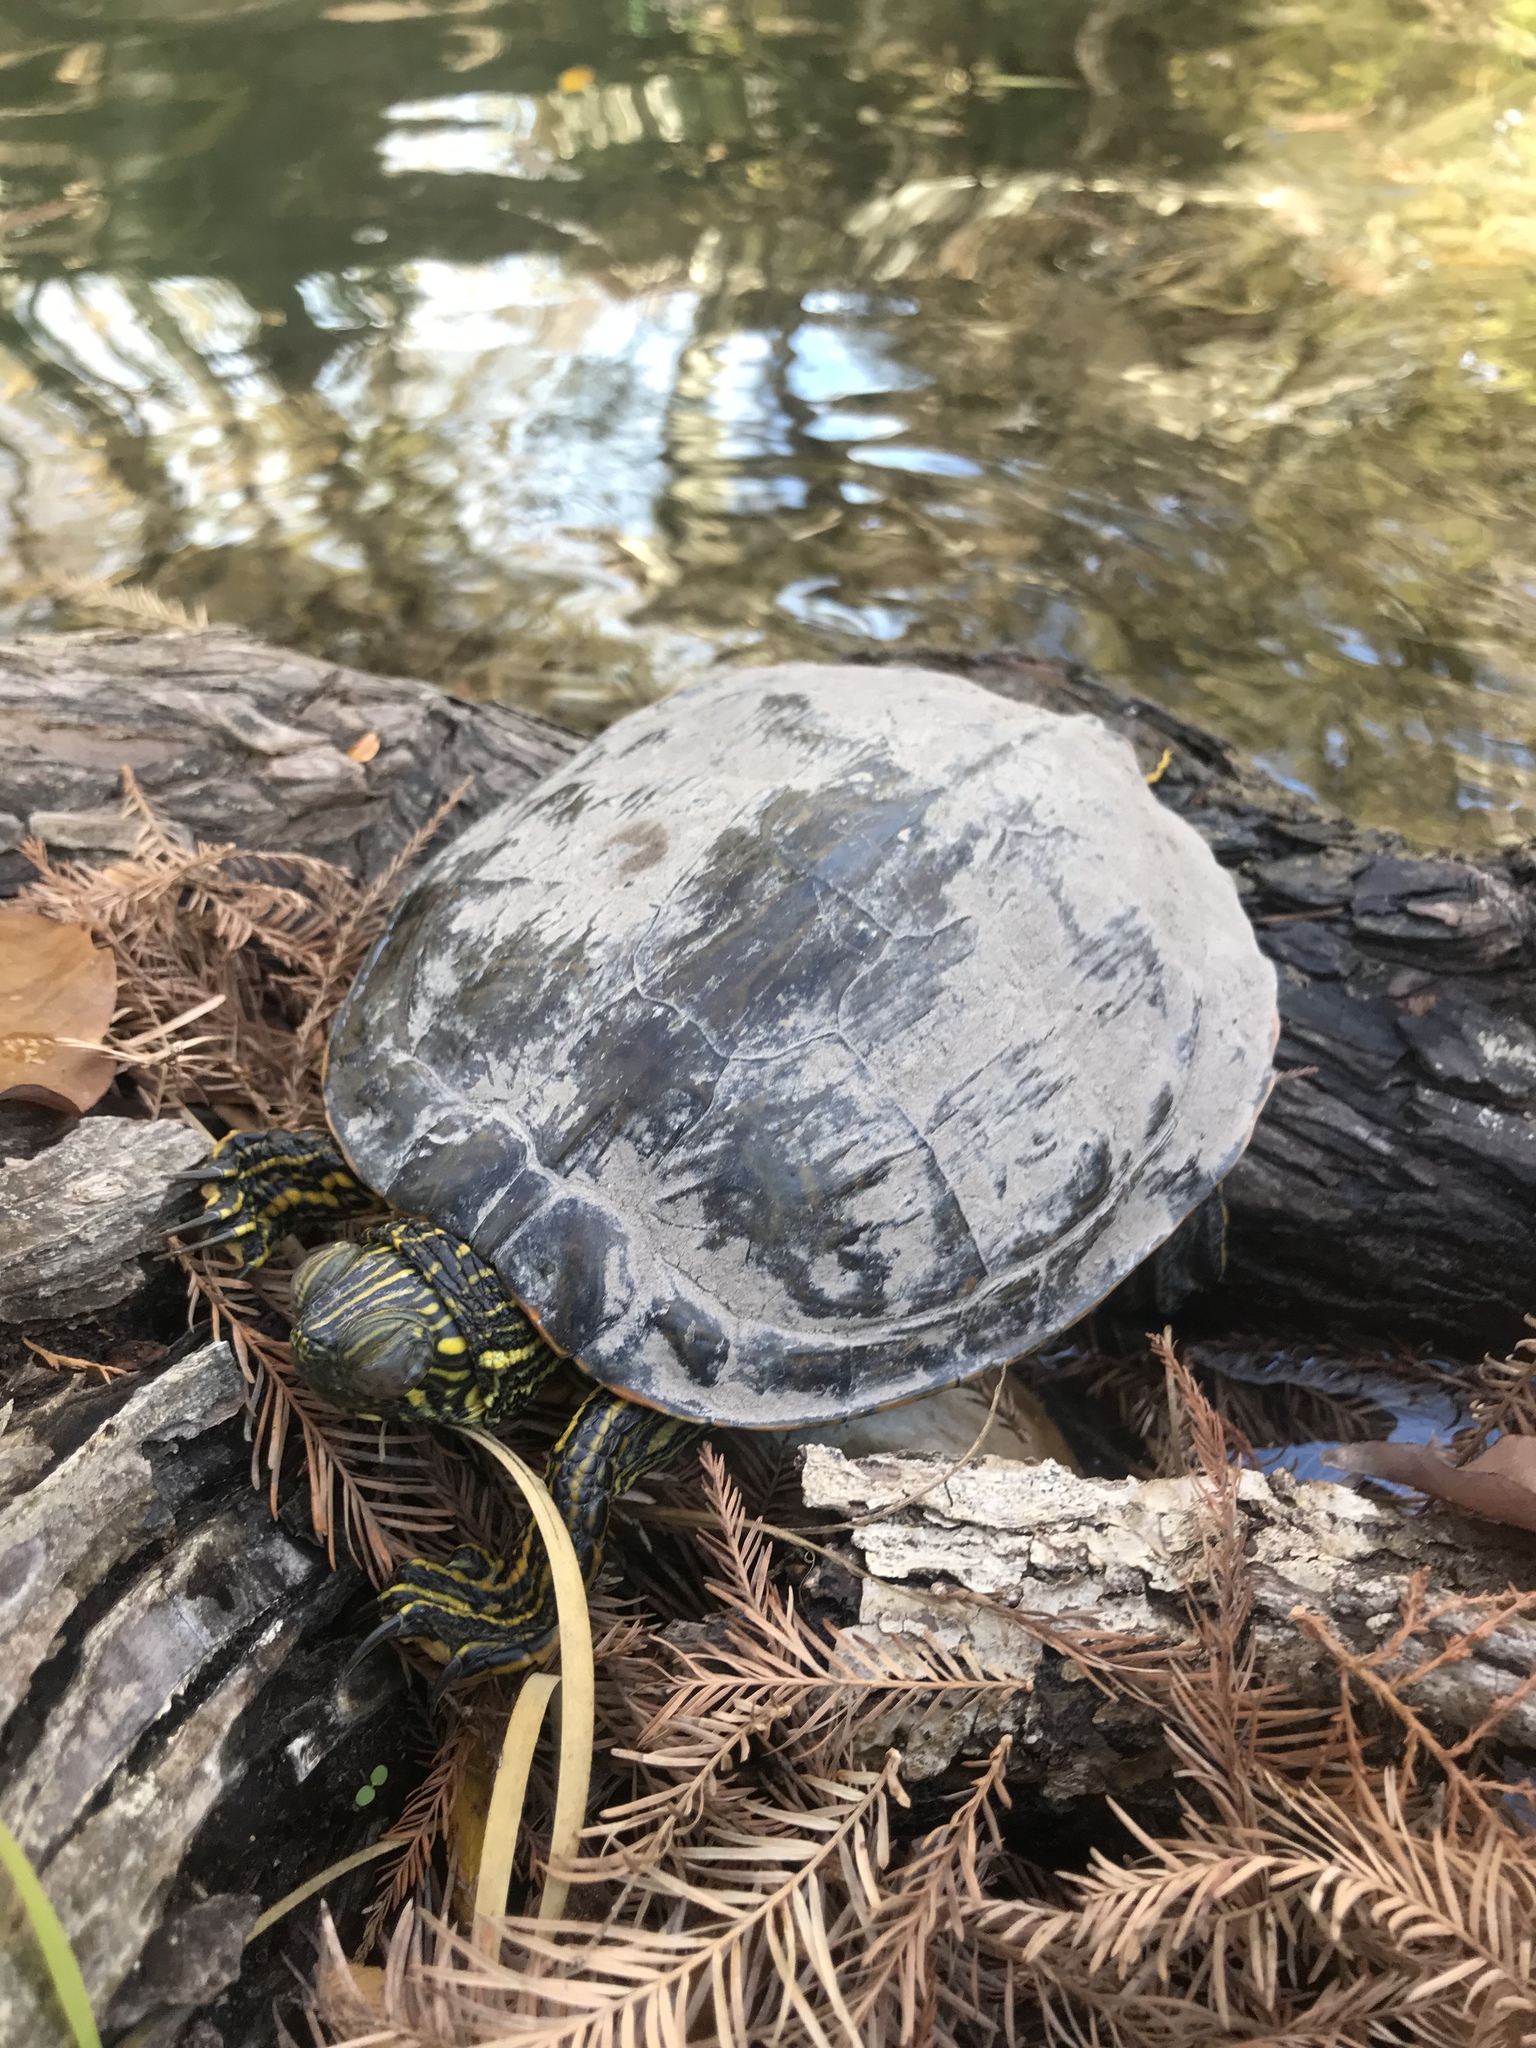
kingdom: Animalia
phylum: Chordata
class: Testudines
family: Emydidae
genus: Pseudemys
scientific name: Pseudemys texana
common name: Texas river cooter
